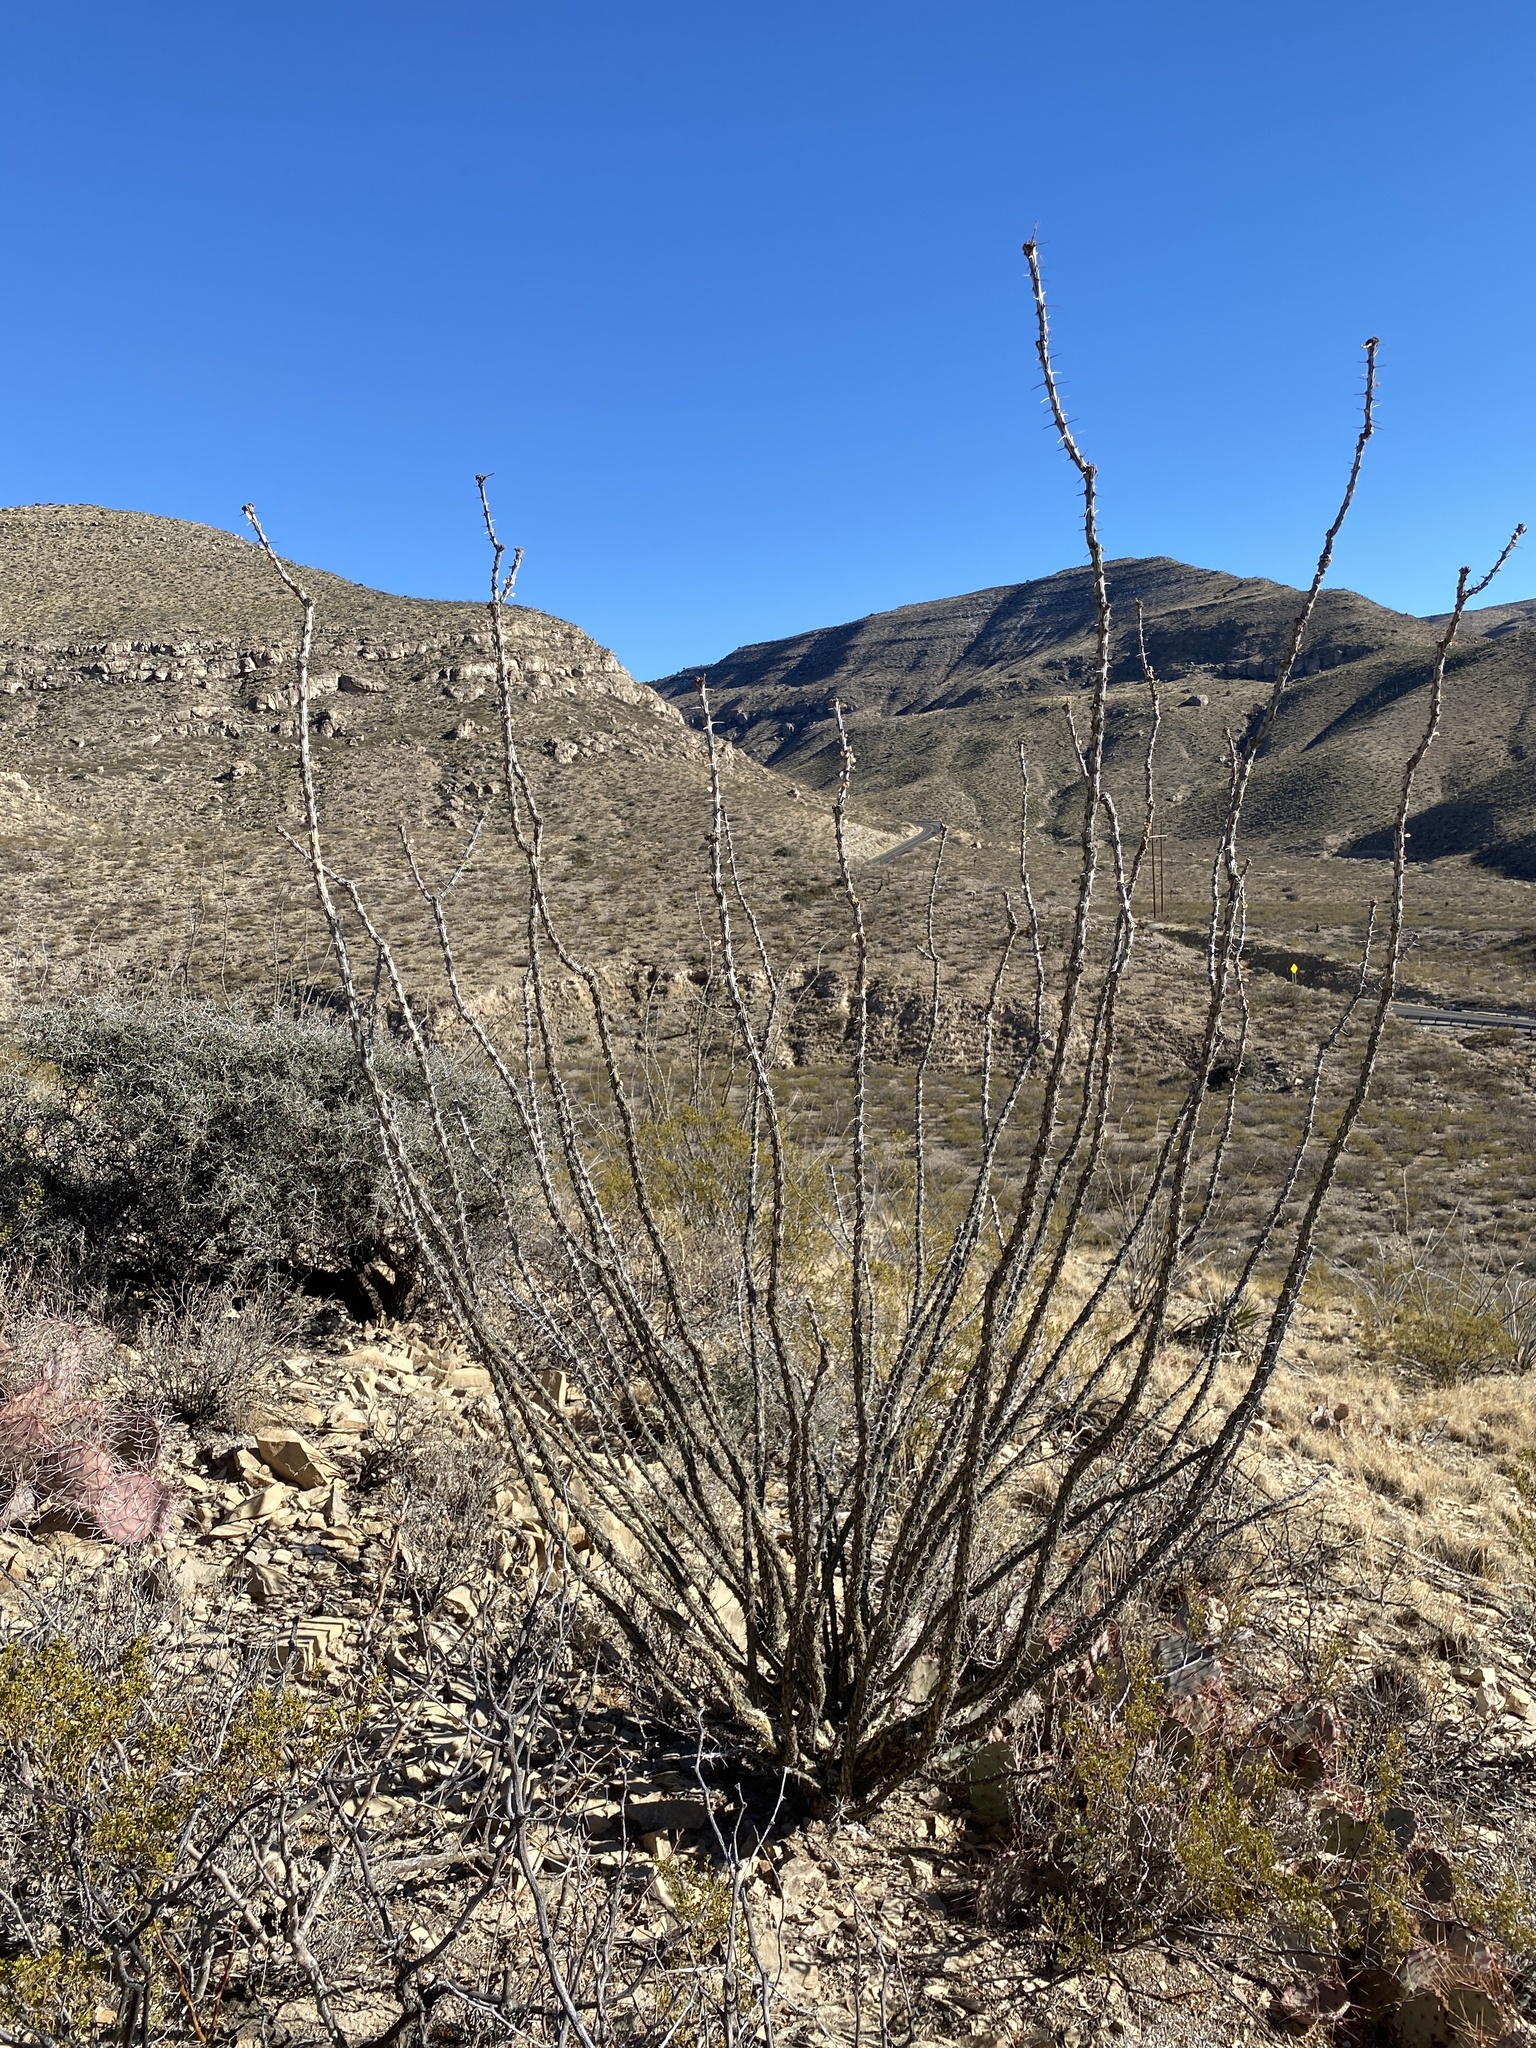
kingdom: Plantae
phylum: Tracheophyta
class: Magnoliopsida
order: Ericales
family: Fouquieriaceae
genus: Fouquieria
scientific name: Fouquieria splendens
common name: Vine-cactus
